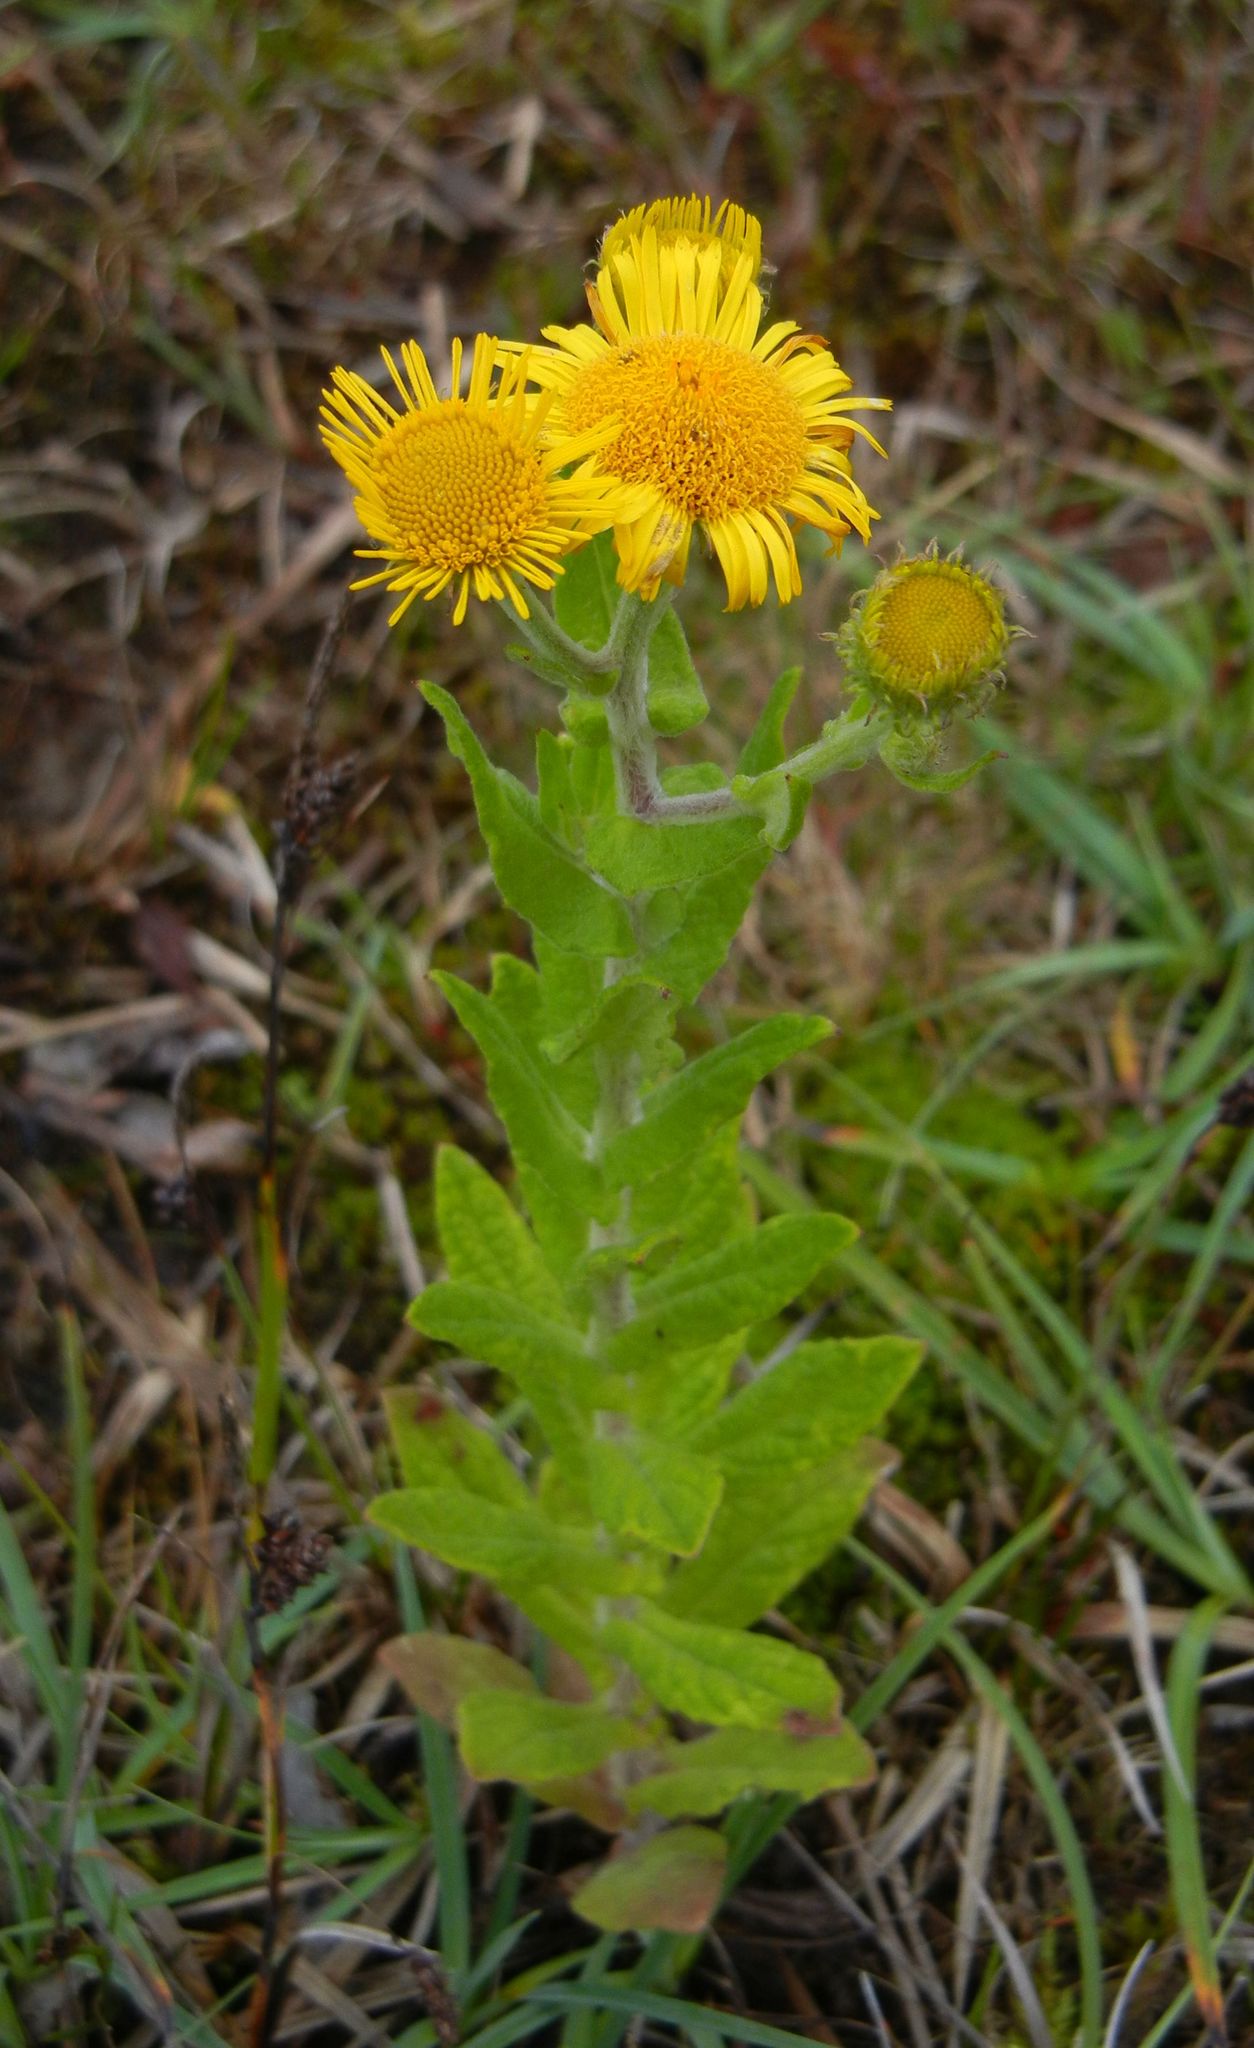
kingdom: Plantae
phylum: Tracheophyta
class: Magnoliopsida
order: Asterales
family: Asteraceae
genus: Pulicaria
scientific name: Pulicaria dysenterica
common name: Common fleabane
